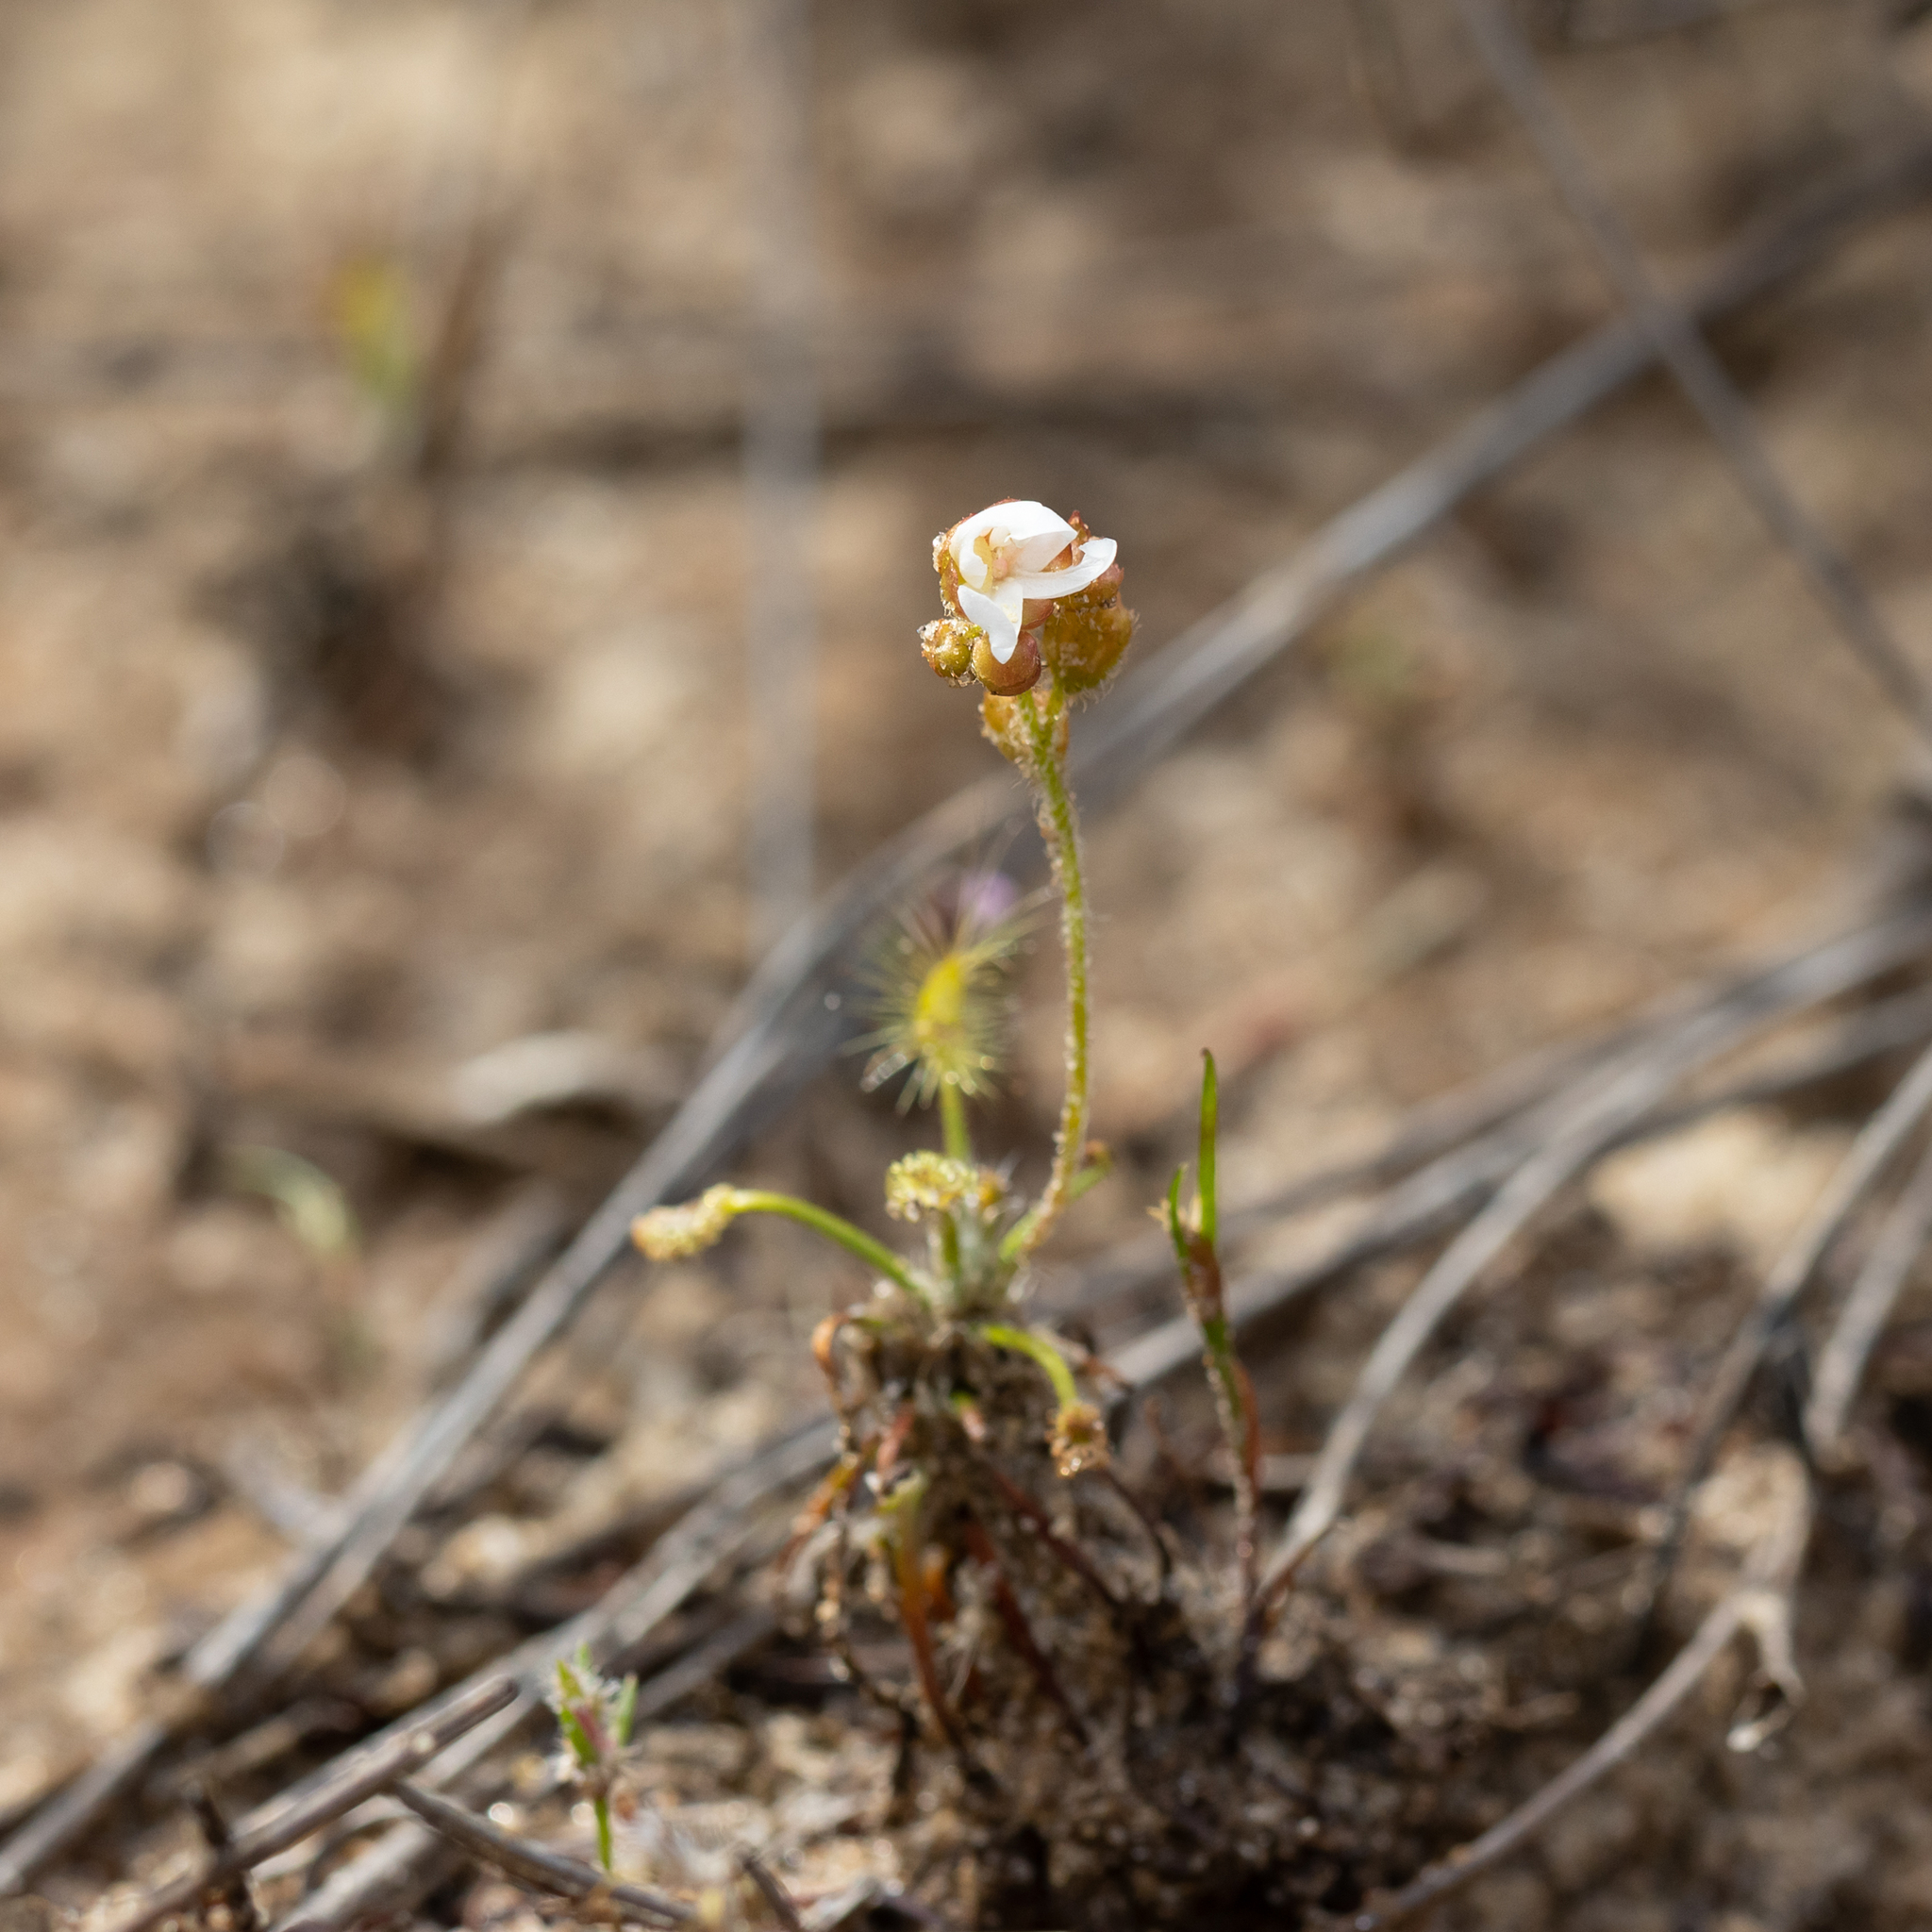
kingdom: Plantae
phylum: Tracheophyta
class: Magnoliopsida
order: Caryophyllales
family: Droseraceae
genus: Drosera
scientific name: Drosera scorpioides
